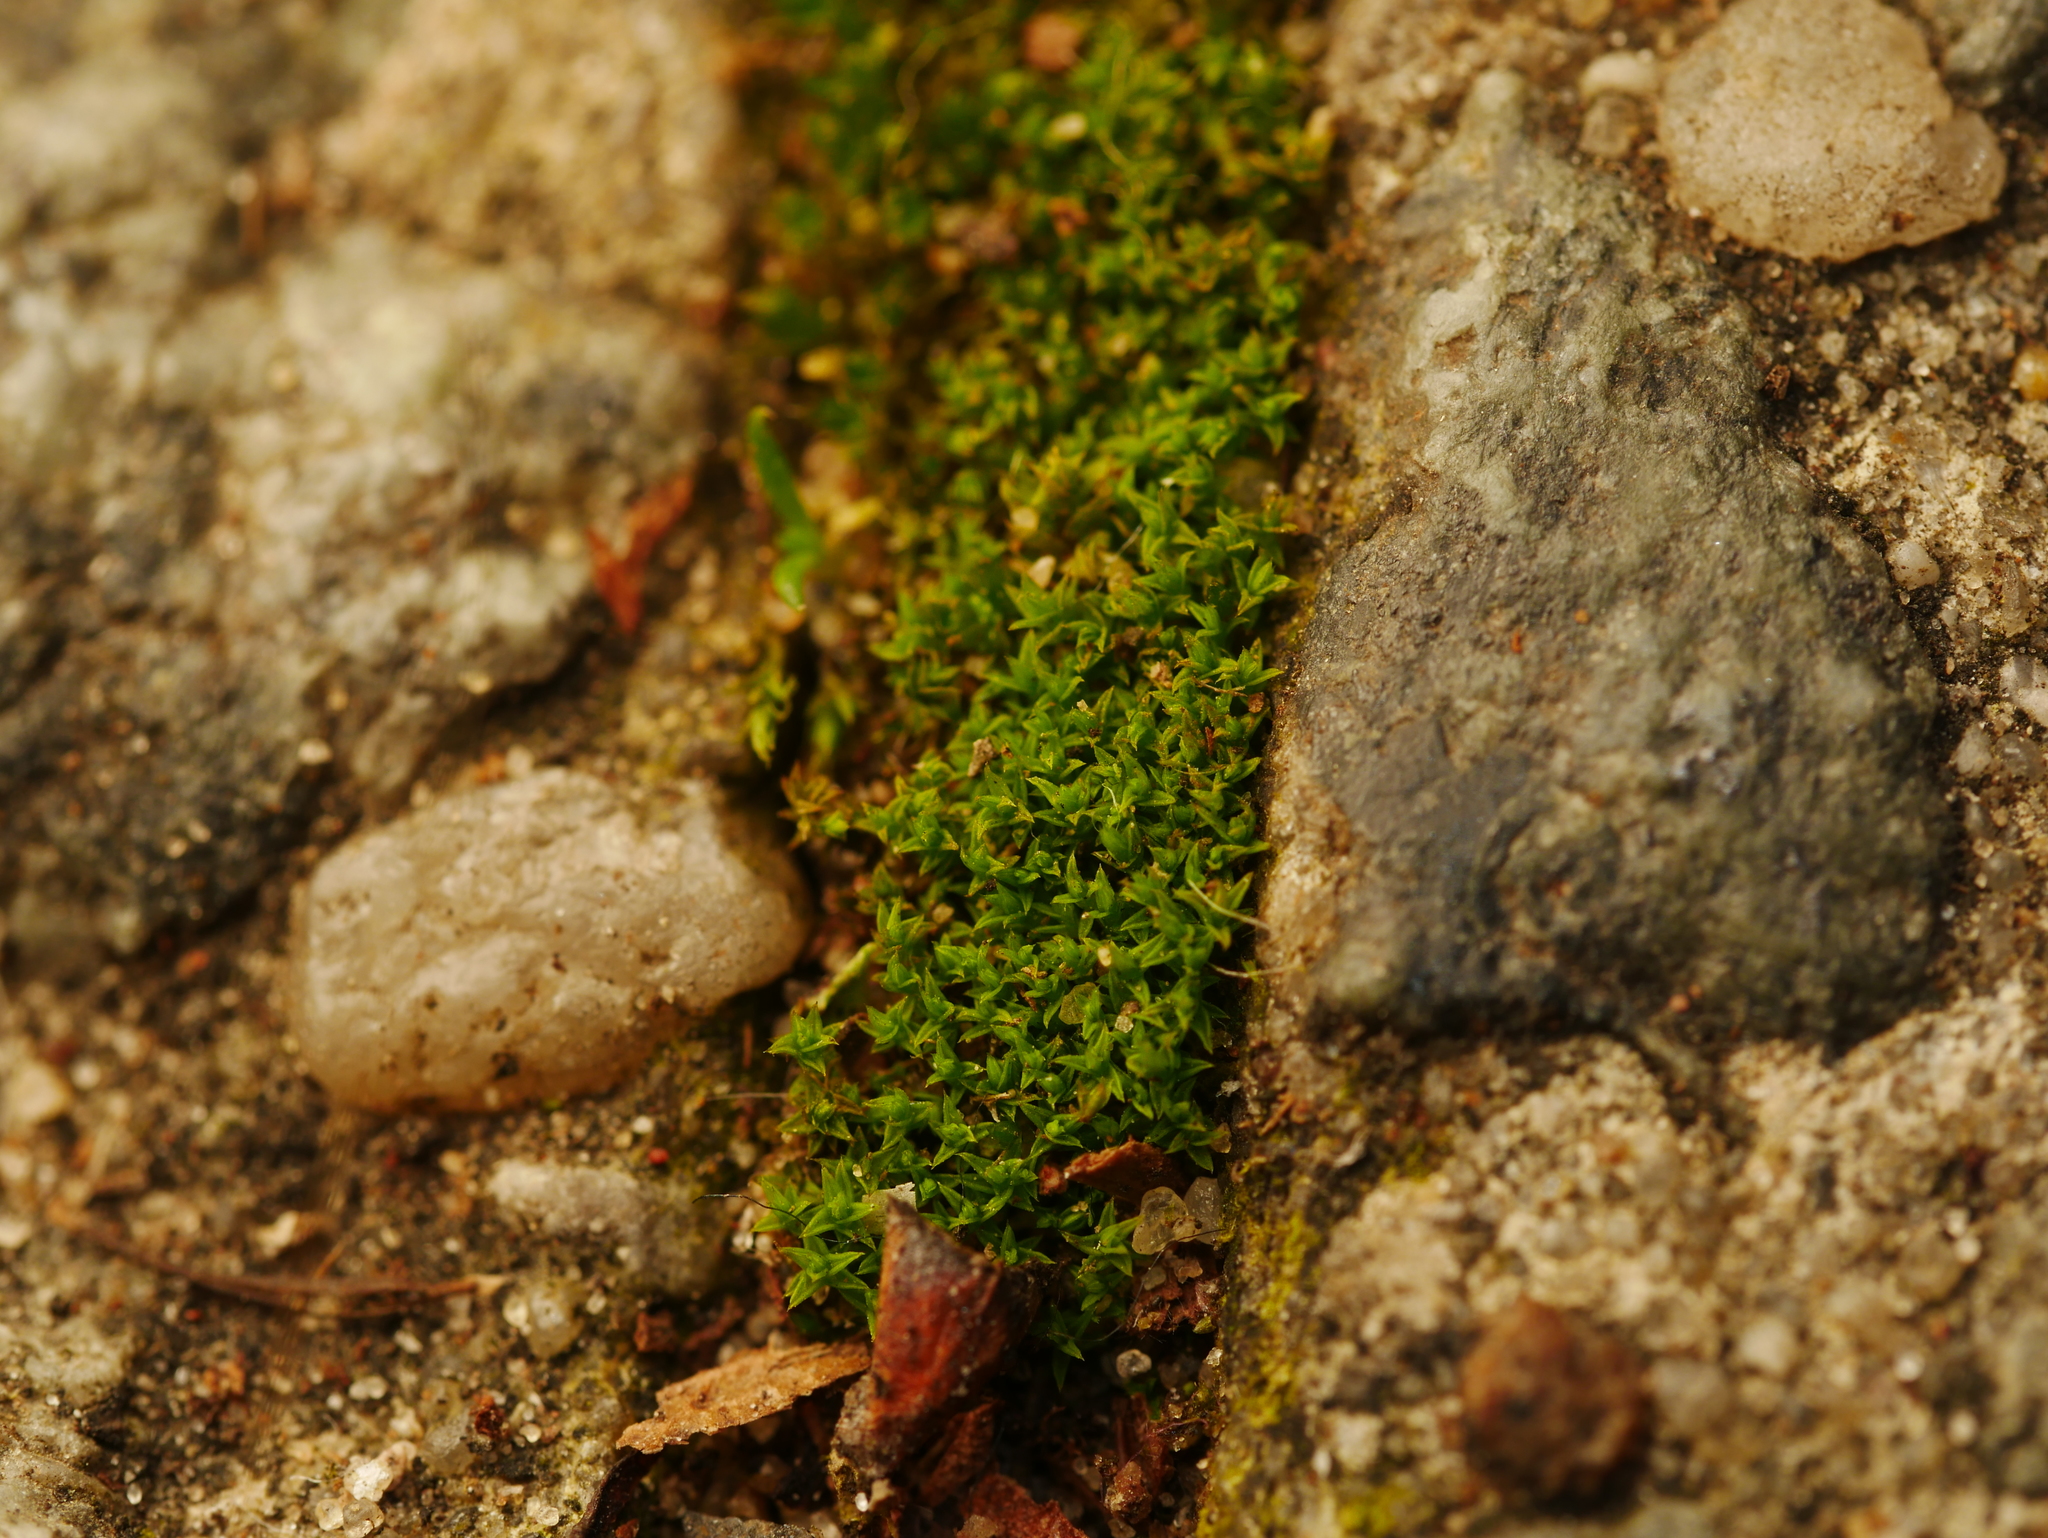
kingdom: Plantae
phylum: Bryophyta
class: Bryopsida
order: Pottiales
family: Pottiaceae
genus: Barbula
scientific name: Barbula unguiculata
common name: Prickly beard moss
